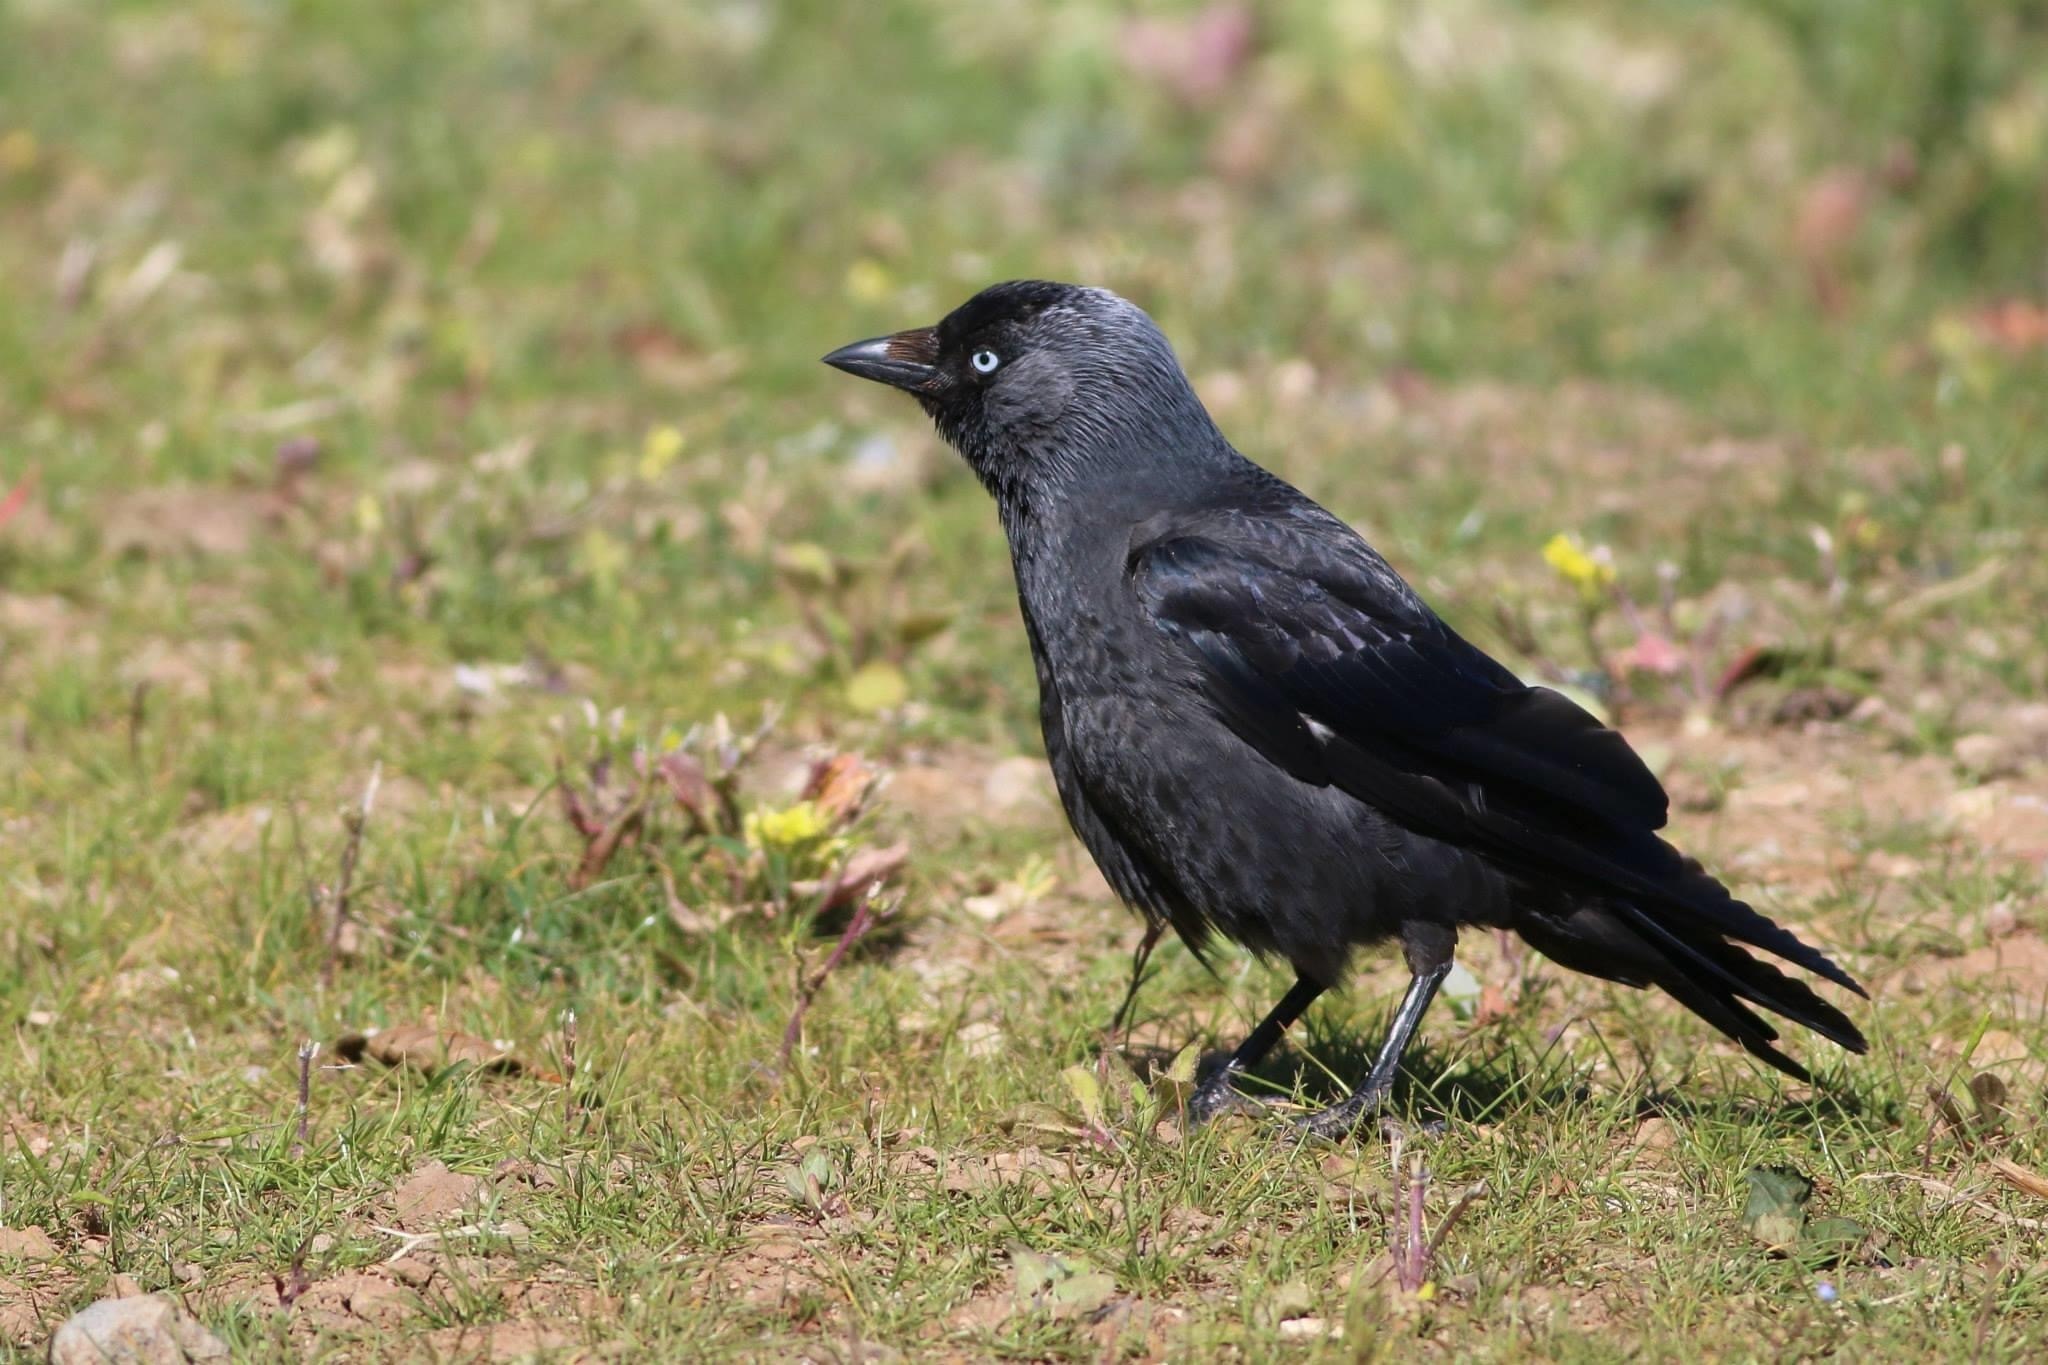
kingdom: Animalia
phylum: Chordata
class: Aves
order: Passeriformes
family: Corvidae
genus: Coloeus
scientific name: Coloeus monedula
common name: Western jackdaw
